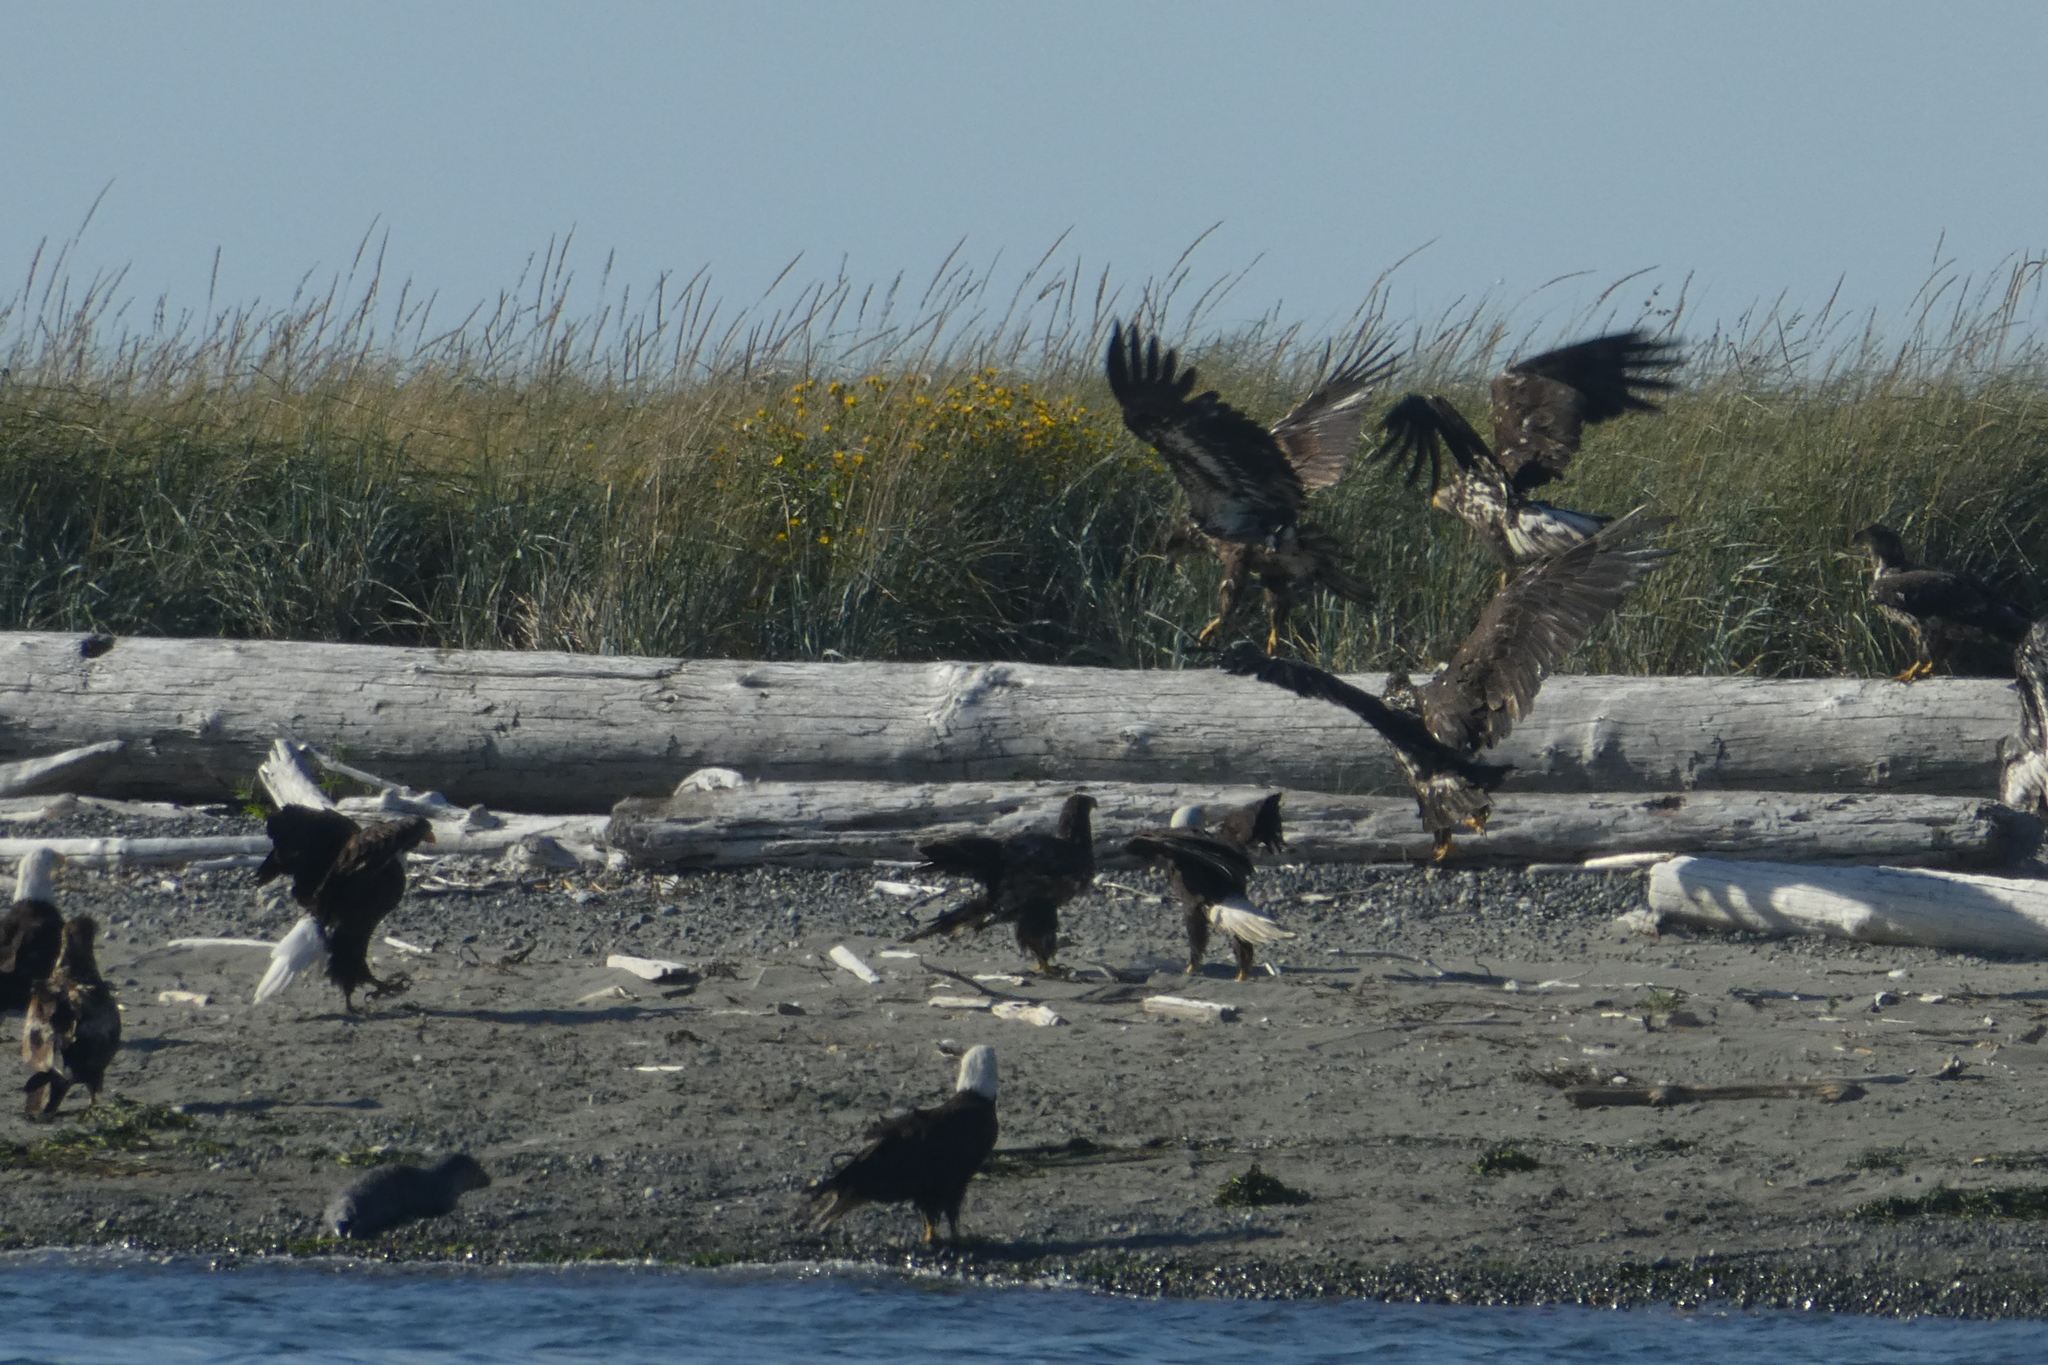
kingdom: Animalia
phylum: Chordata
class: Aves
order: Accipitriformes
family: Accipitridae
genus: Haliaeetus
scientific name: Haliaeetus leucocephalus
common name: Bald eagle
